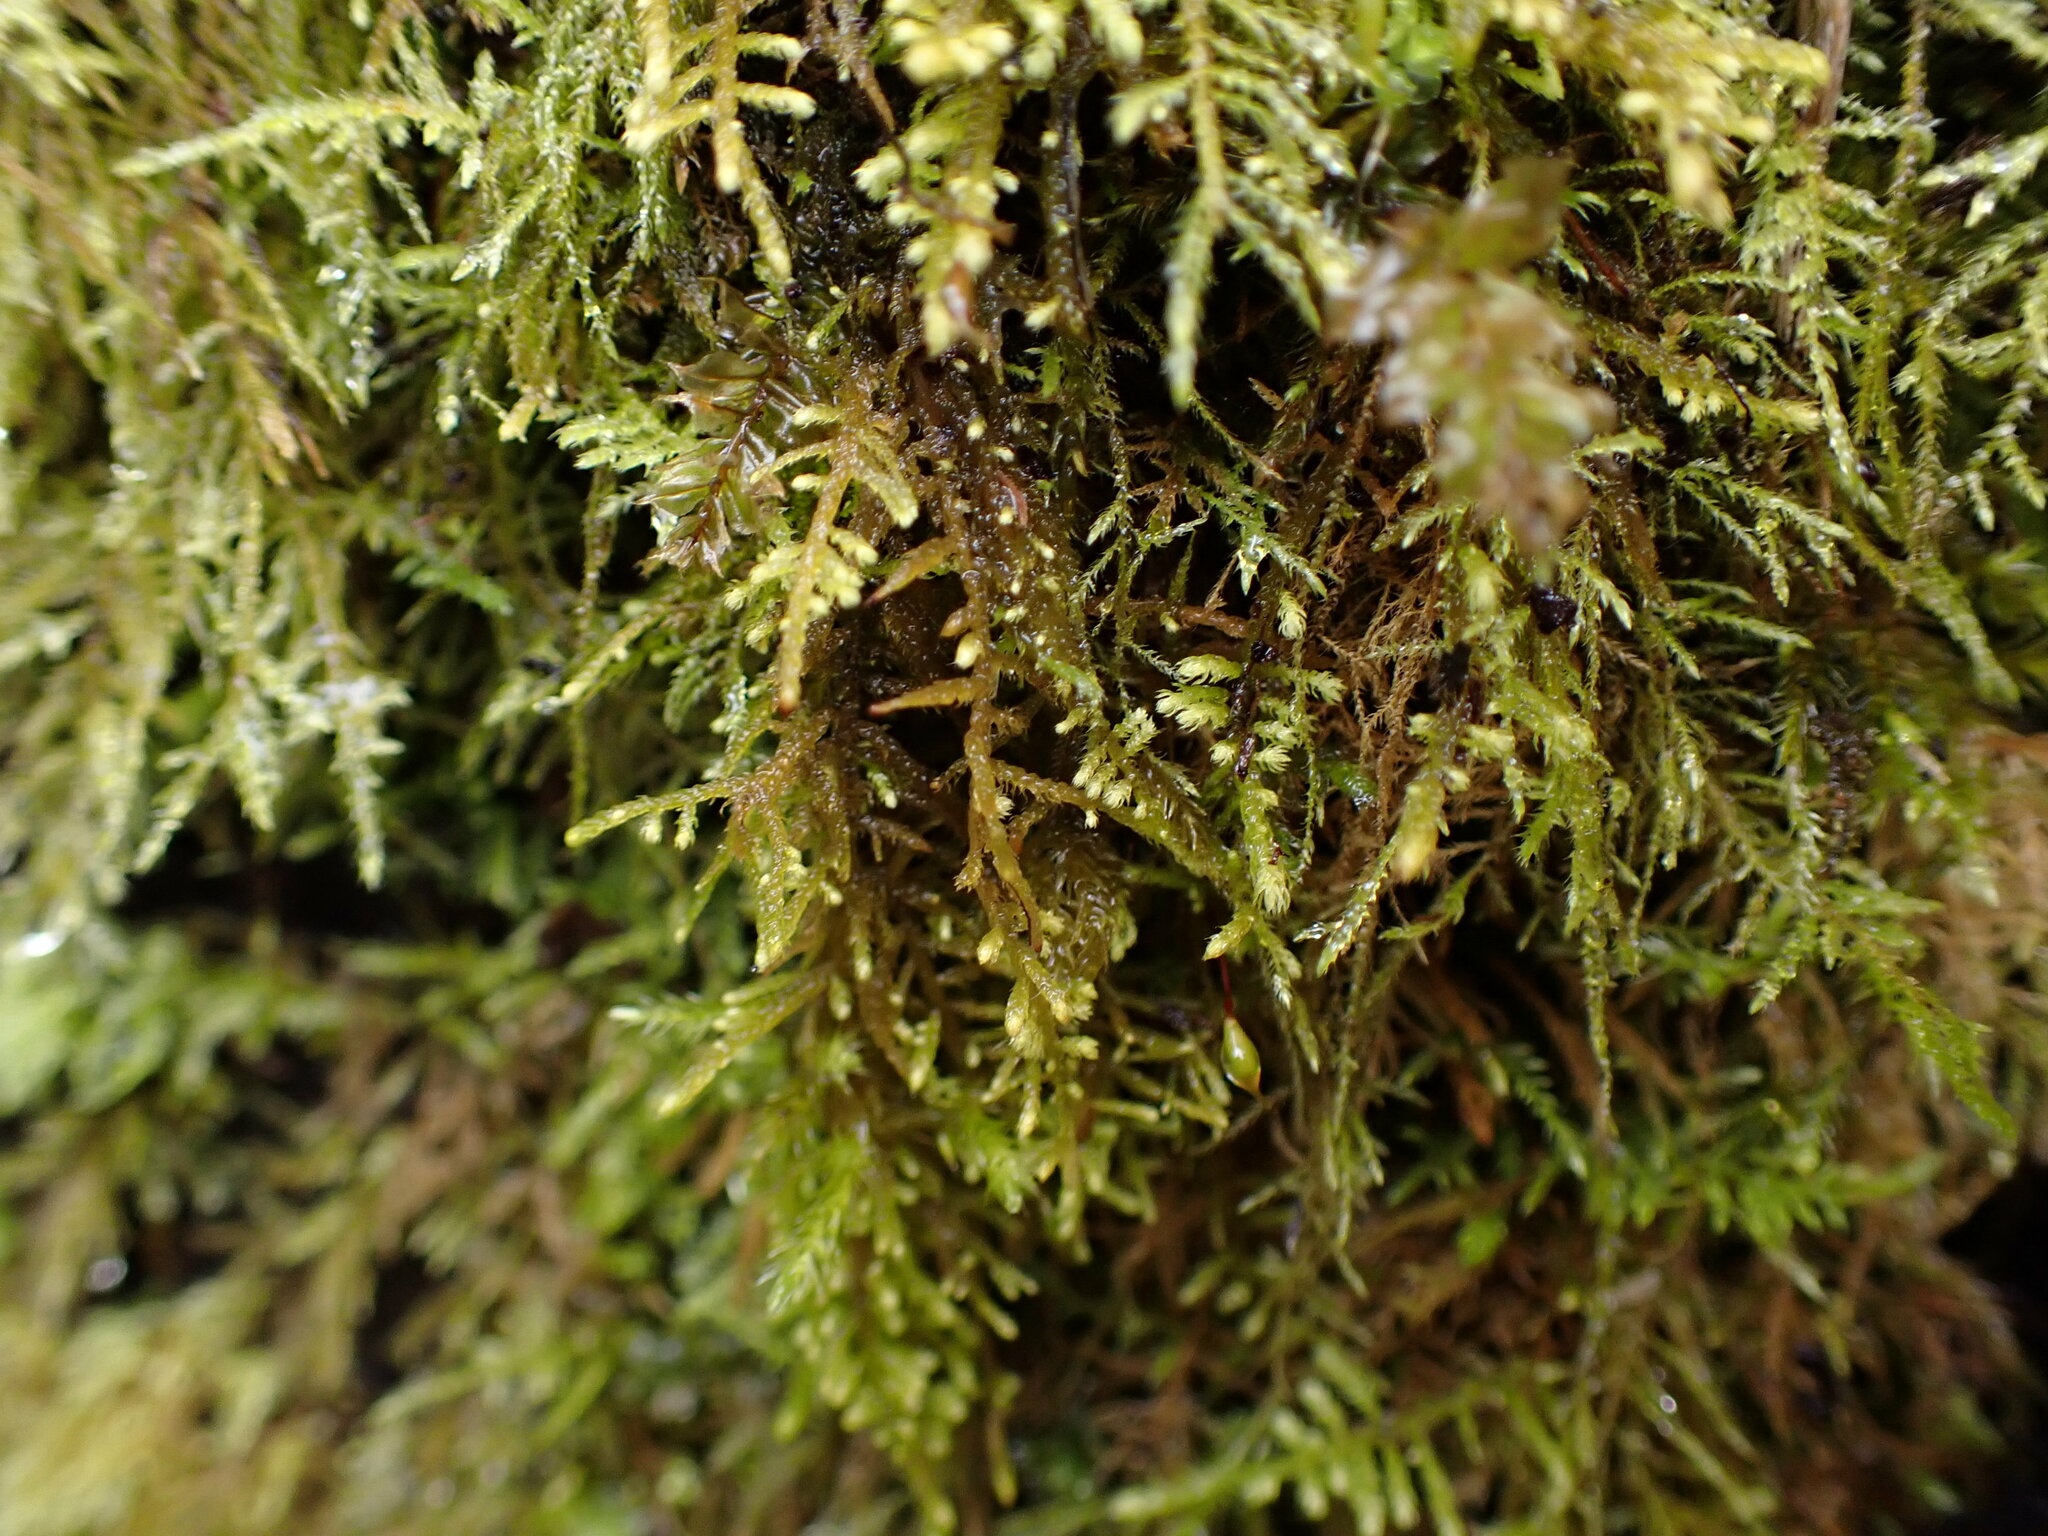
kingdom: Plantae
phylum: Bryophyta
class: Bryopsida
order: Hypnales
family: Brachytheciaceae
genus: Claopodium
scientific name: Claopodium crispifolium
